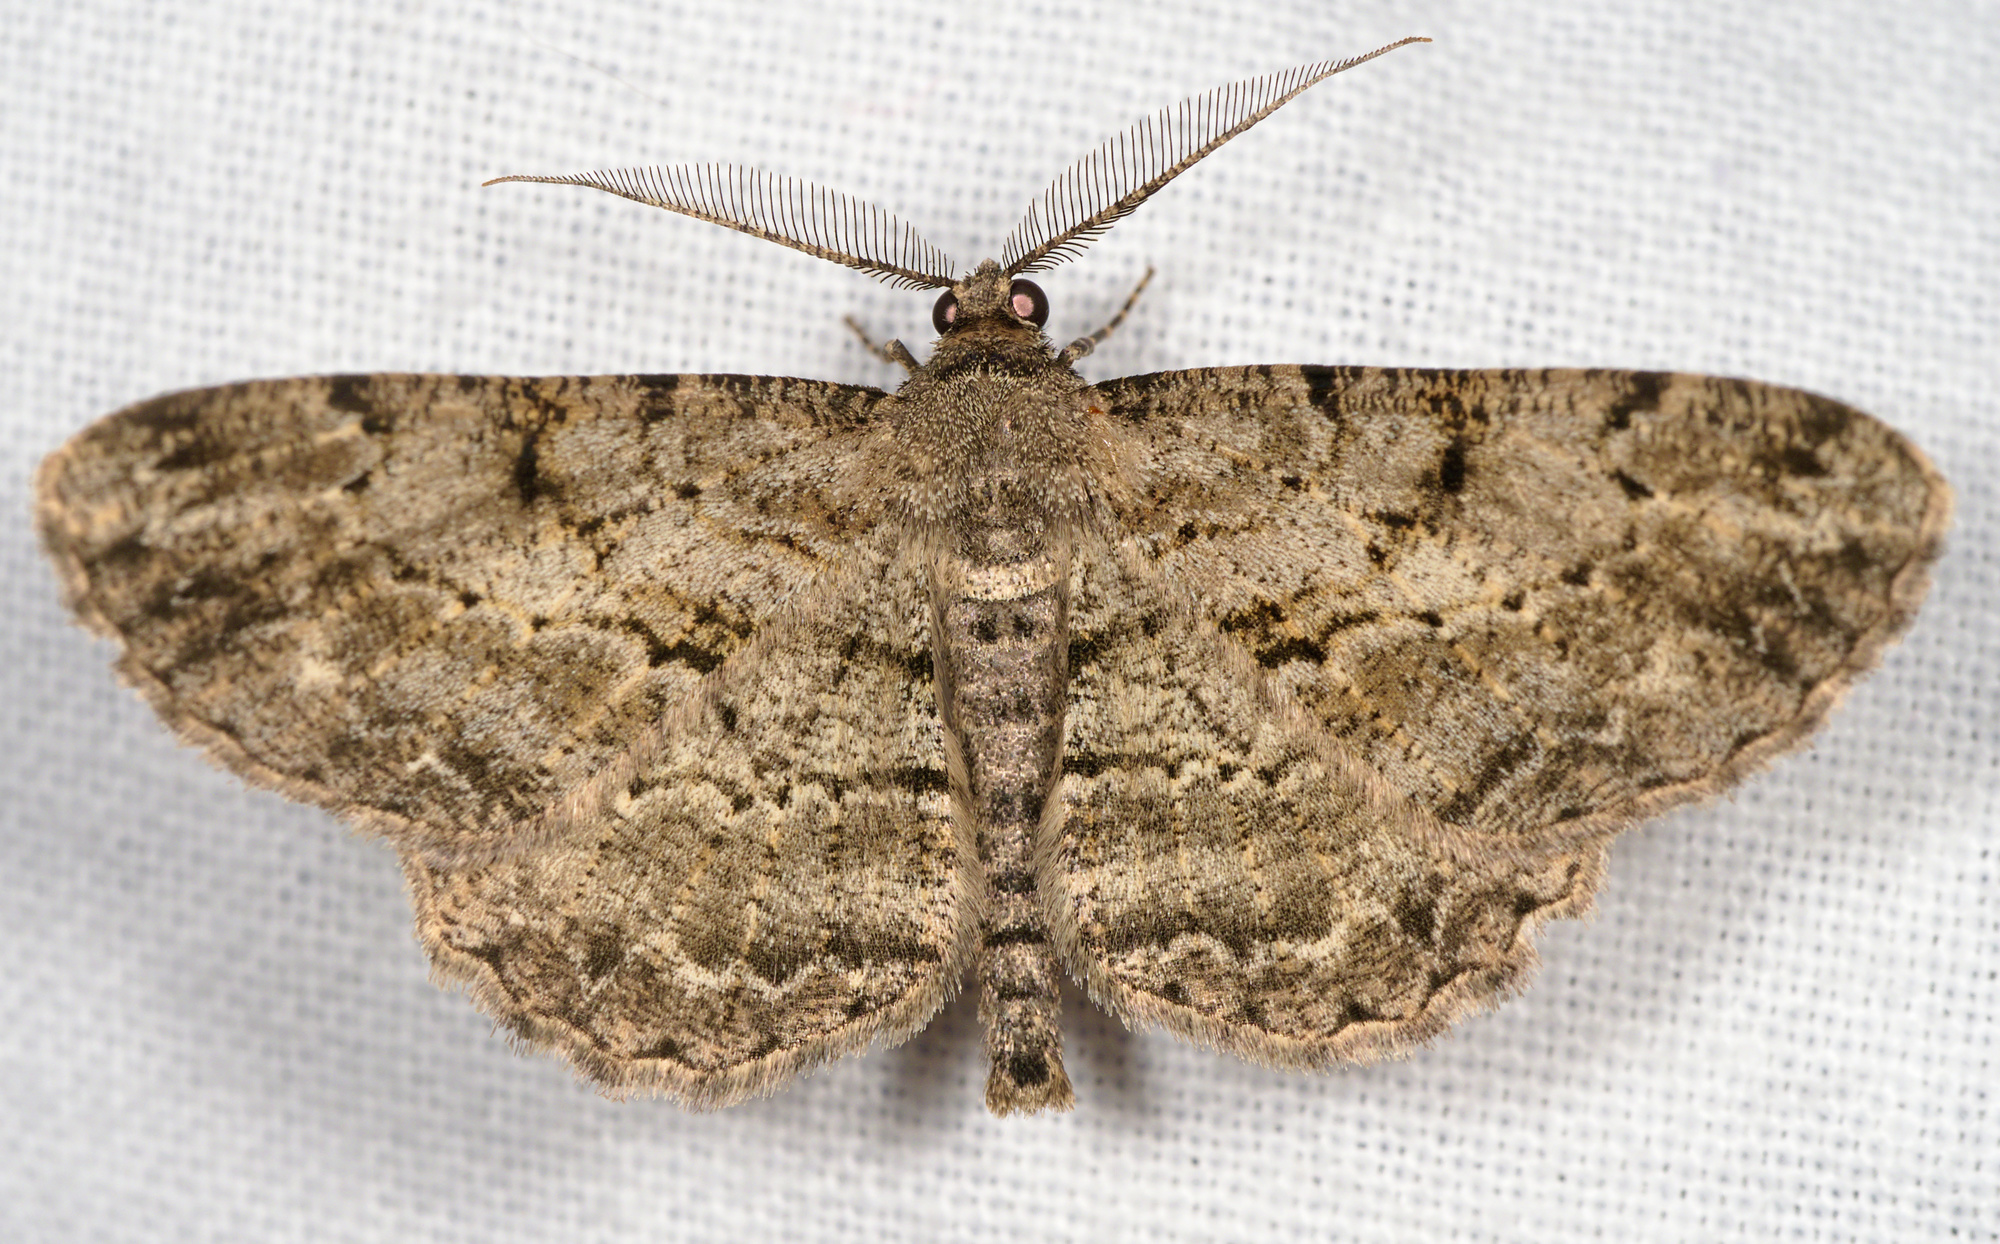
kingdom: Animalia
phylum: Arthropoda
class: Insecta
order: Lepidoptera
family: Geometridae
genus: Peribatodes
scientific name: Peribatodes rhomboidaria
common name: Willow beauty
